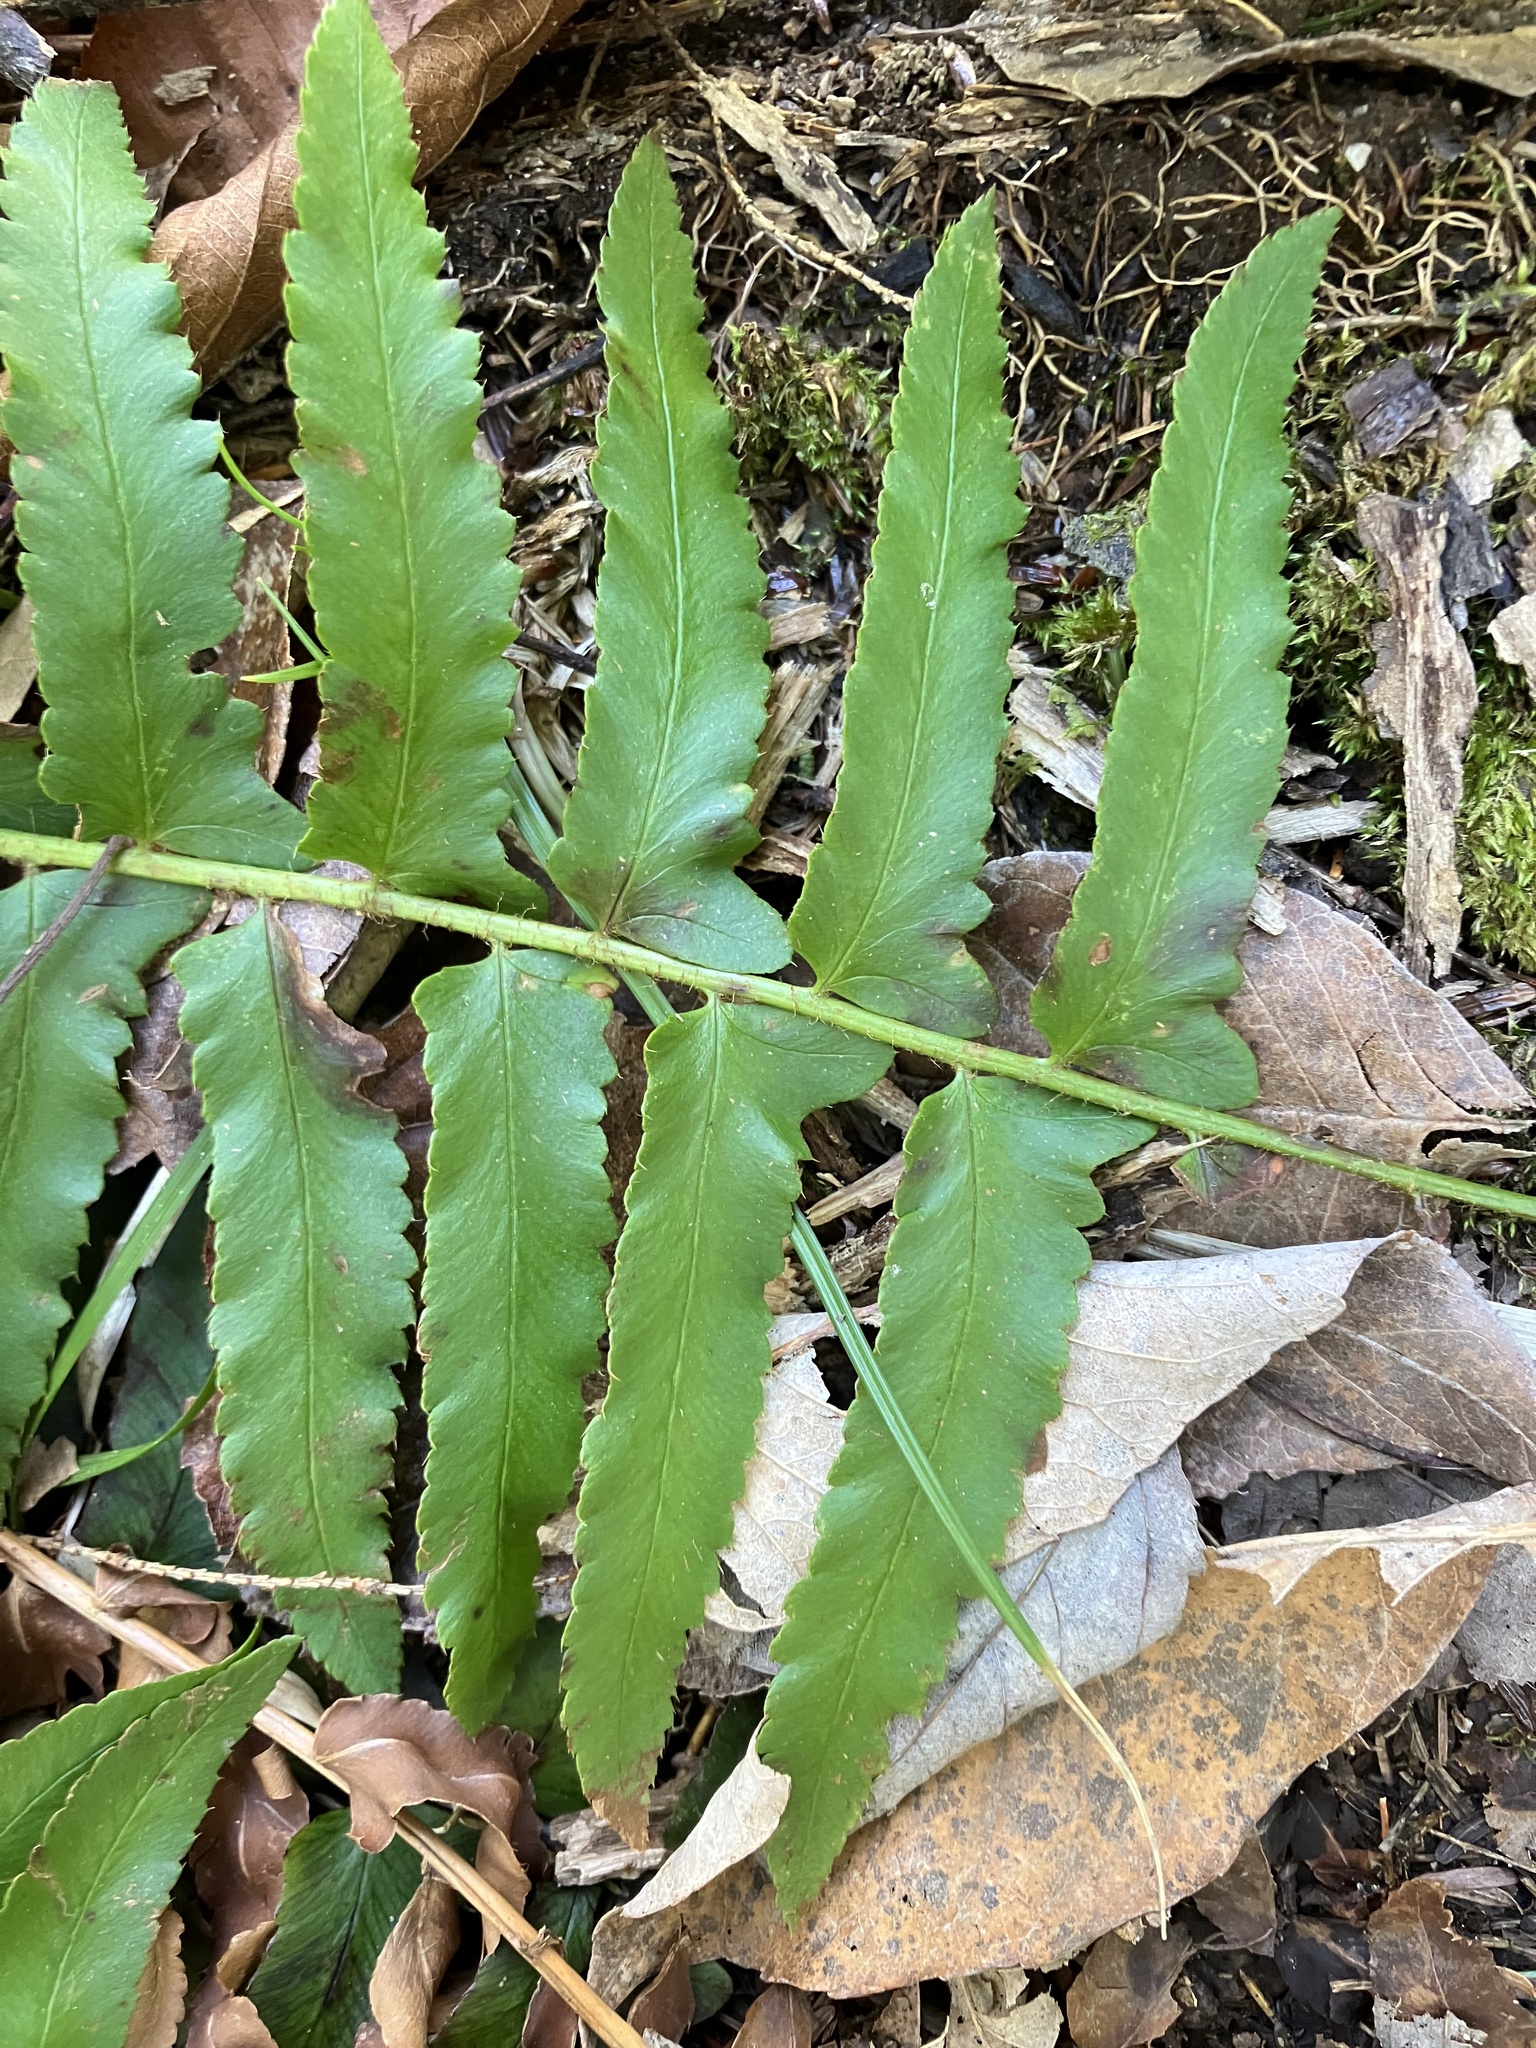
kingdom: Plantae
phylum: Tracheophyta
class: Polypodiopsida
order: Polypodiales
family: Dryopteridaceae
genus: Polystichum
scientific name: Polystichum acrostichoides
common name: Christmas fern
